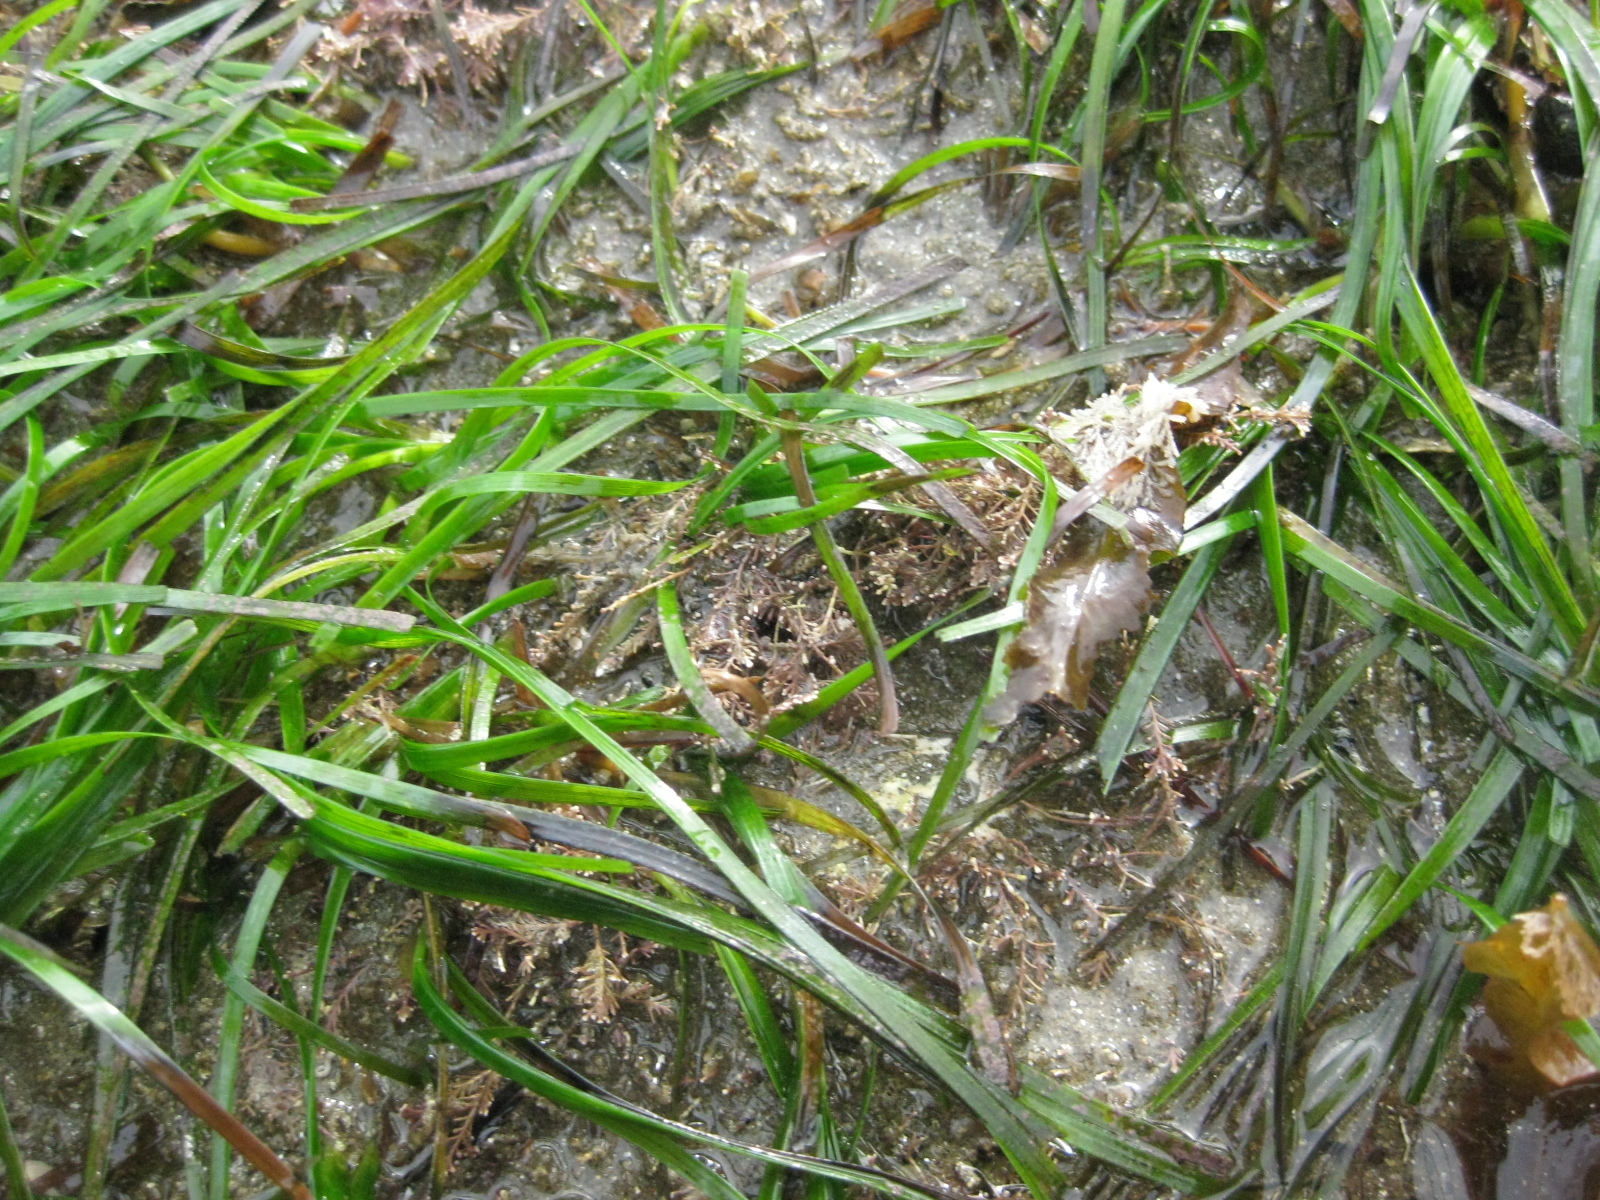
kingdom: Plantae
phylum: Tracheophyta
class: Liliopsida
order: Alismatales
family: Zosteraceae
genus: Zostera
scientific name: Zostera novazelandica
